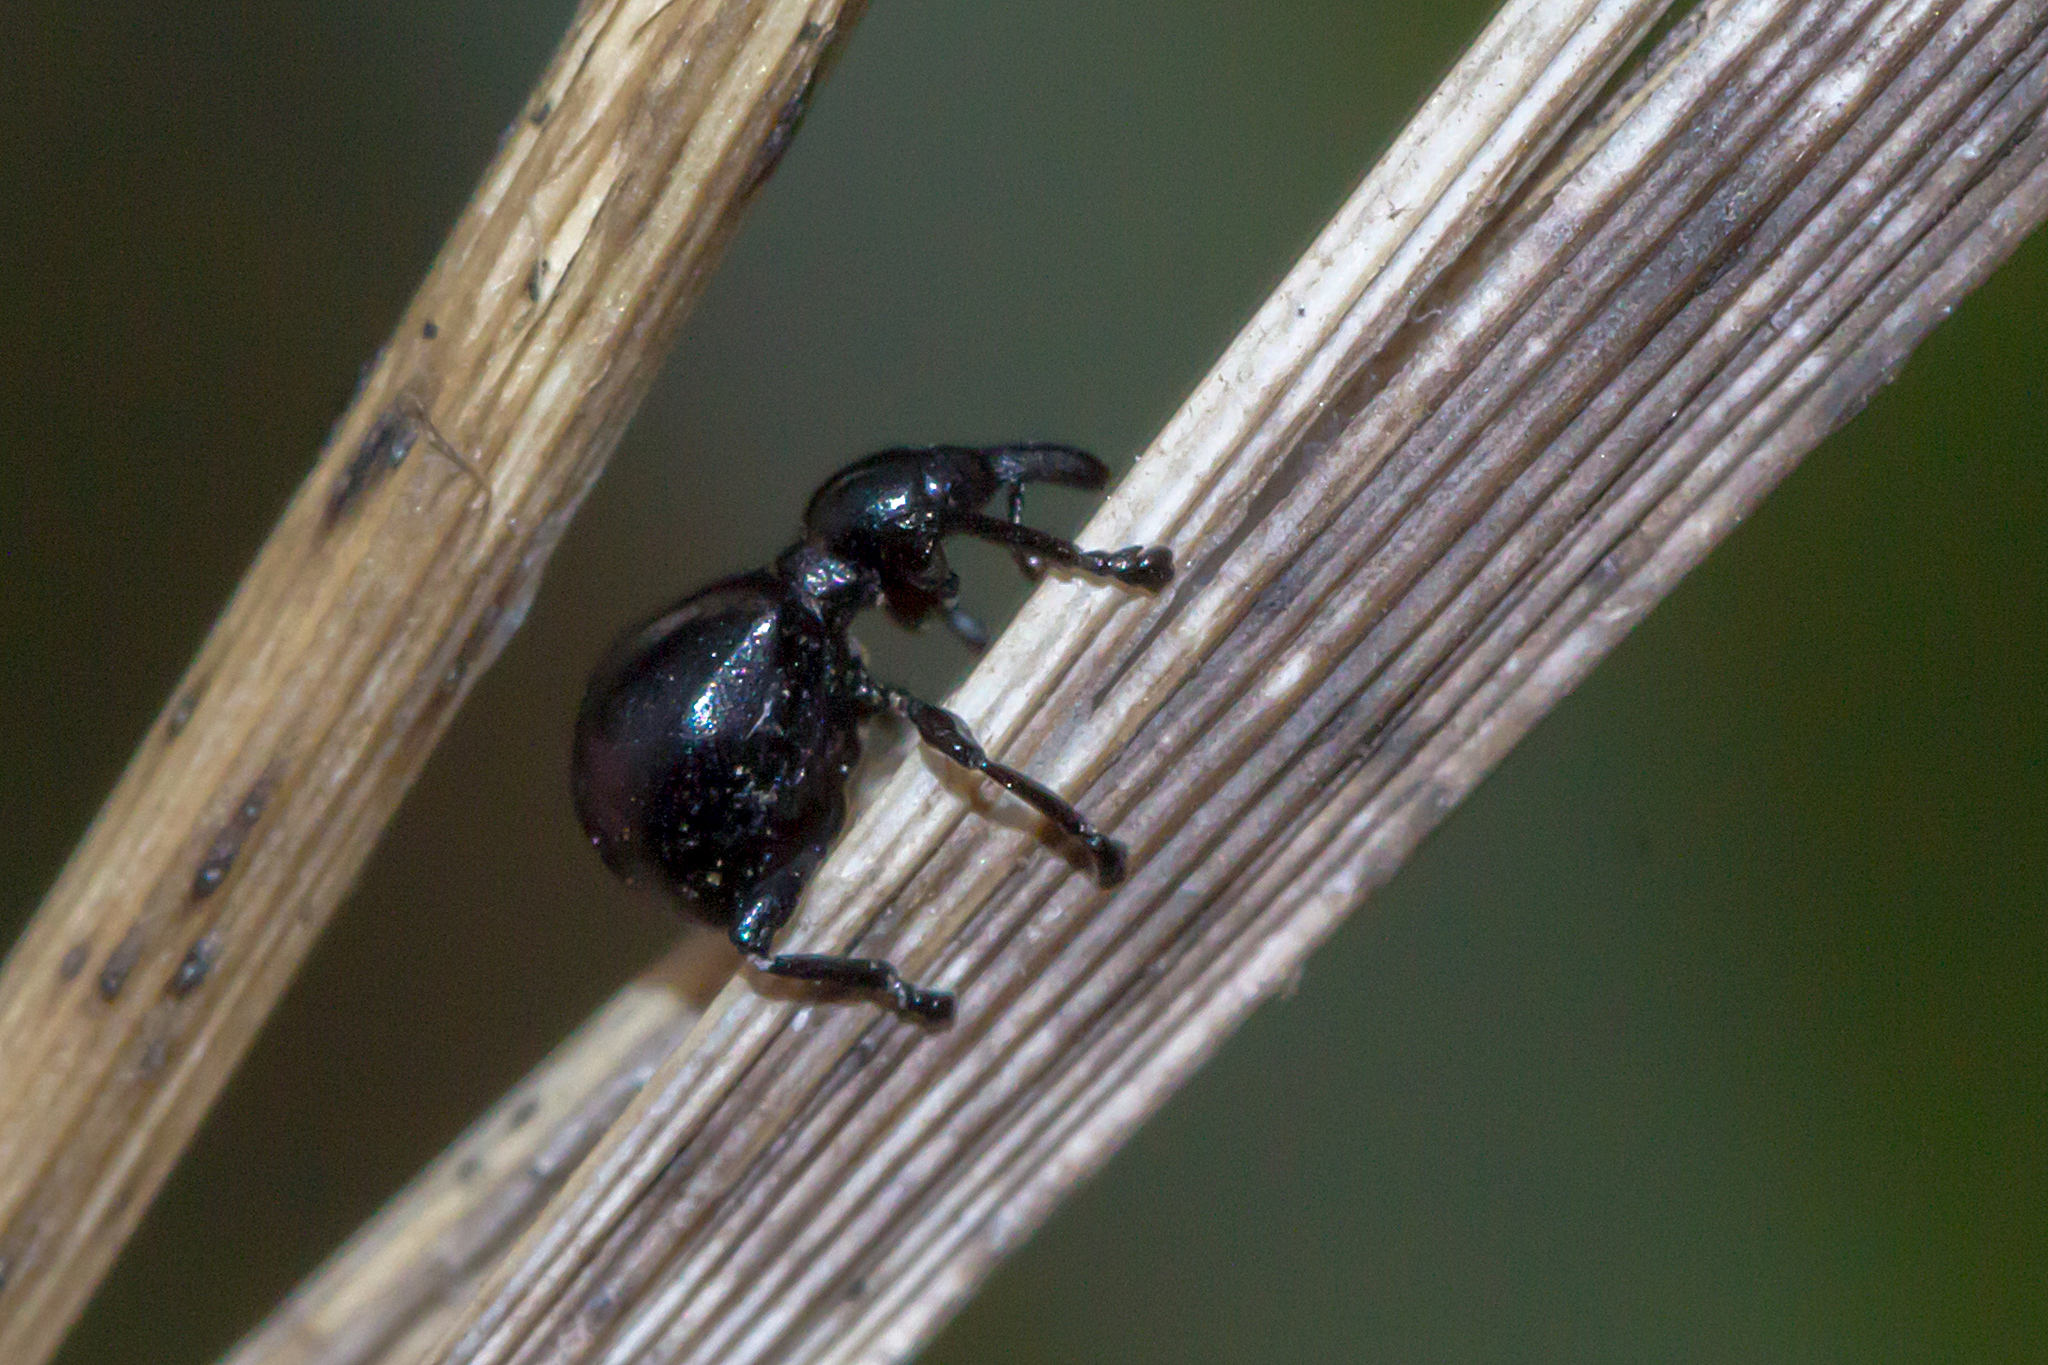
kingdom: Animalia
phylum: Arthropoda
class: Insecta
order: Coleoptera
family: Brentidae
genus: Rhynolaccus
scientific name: Rhynolaccus formicarius
